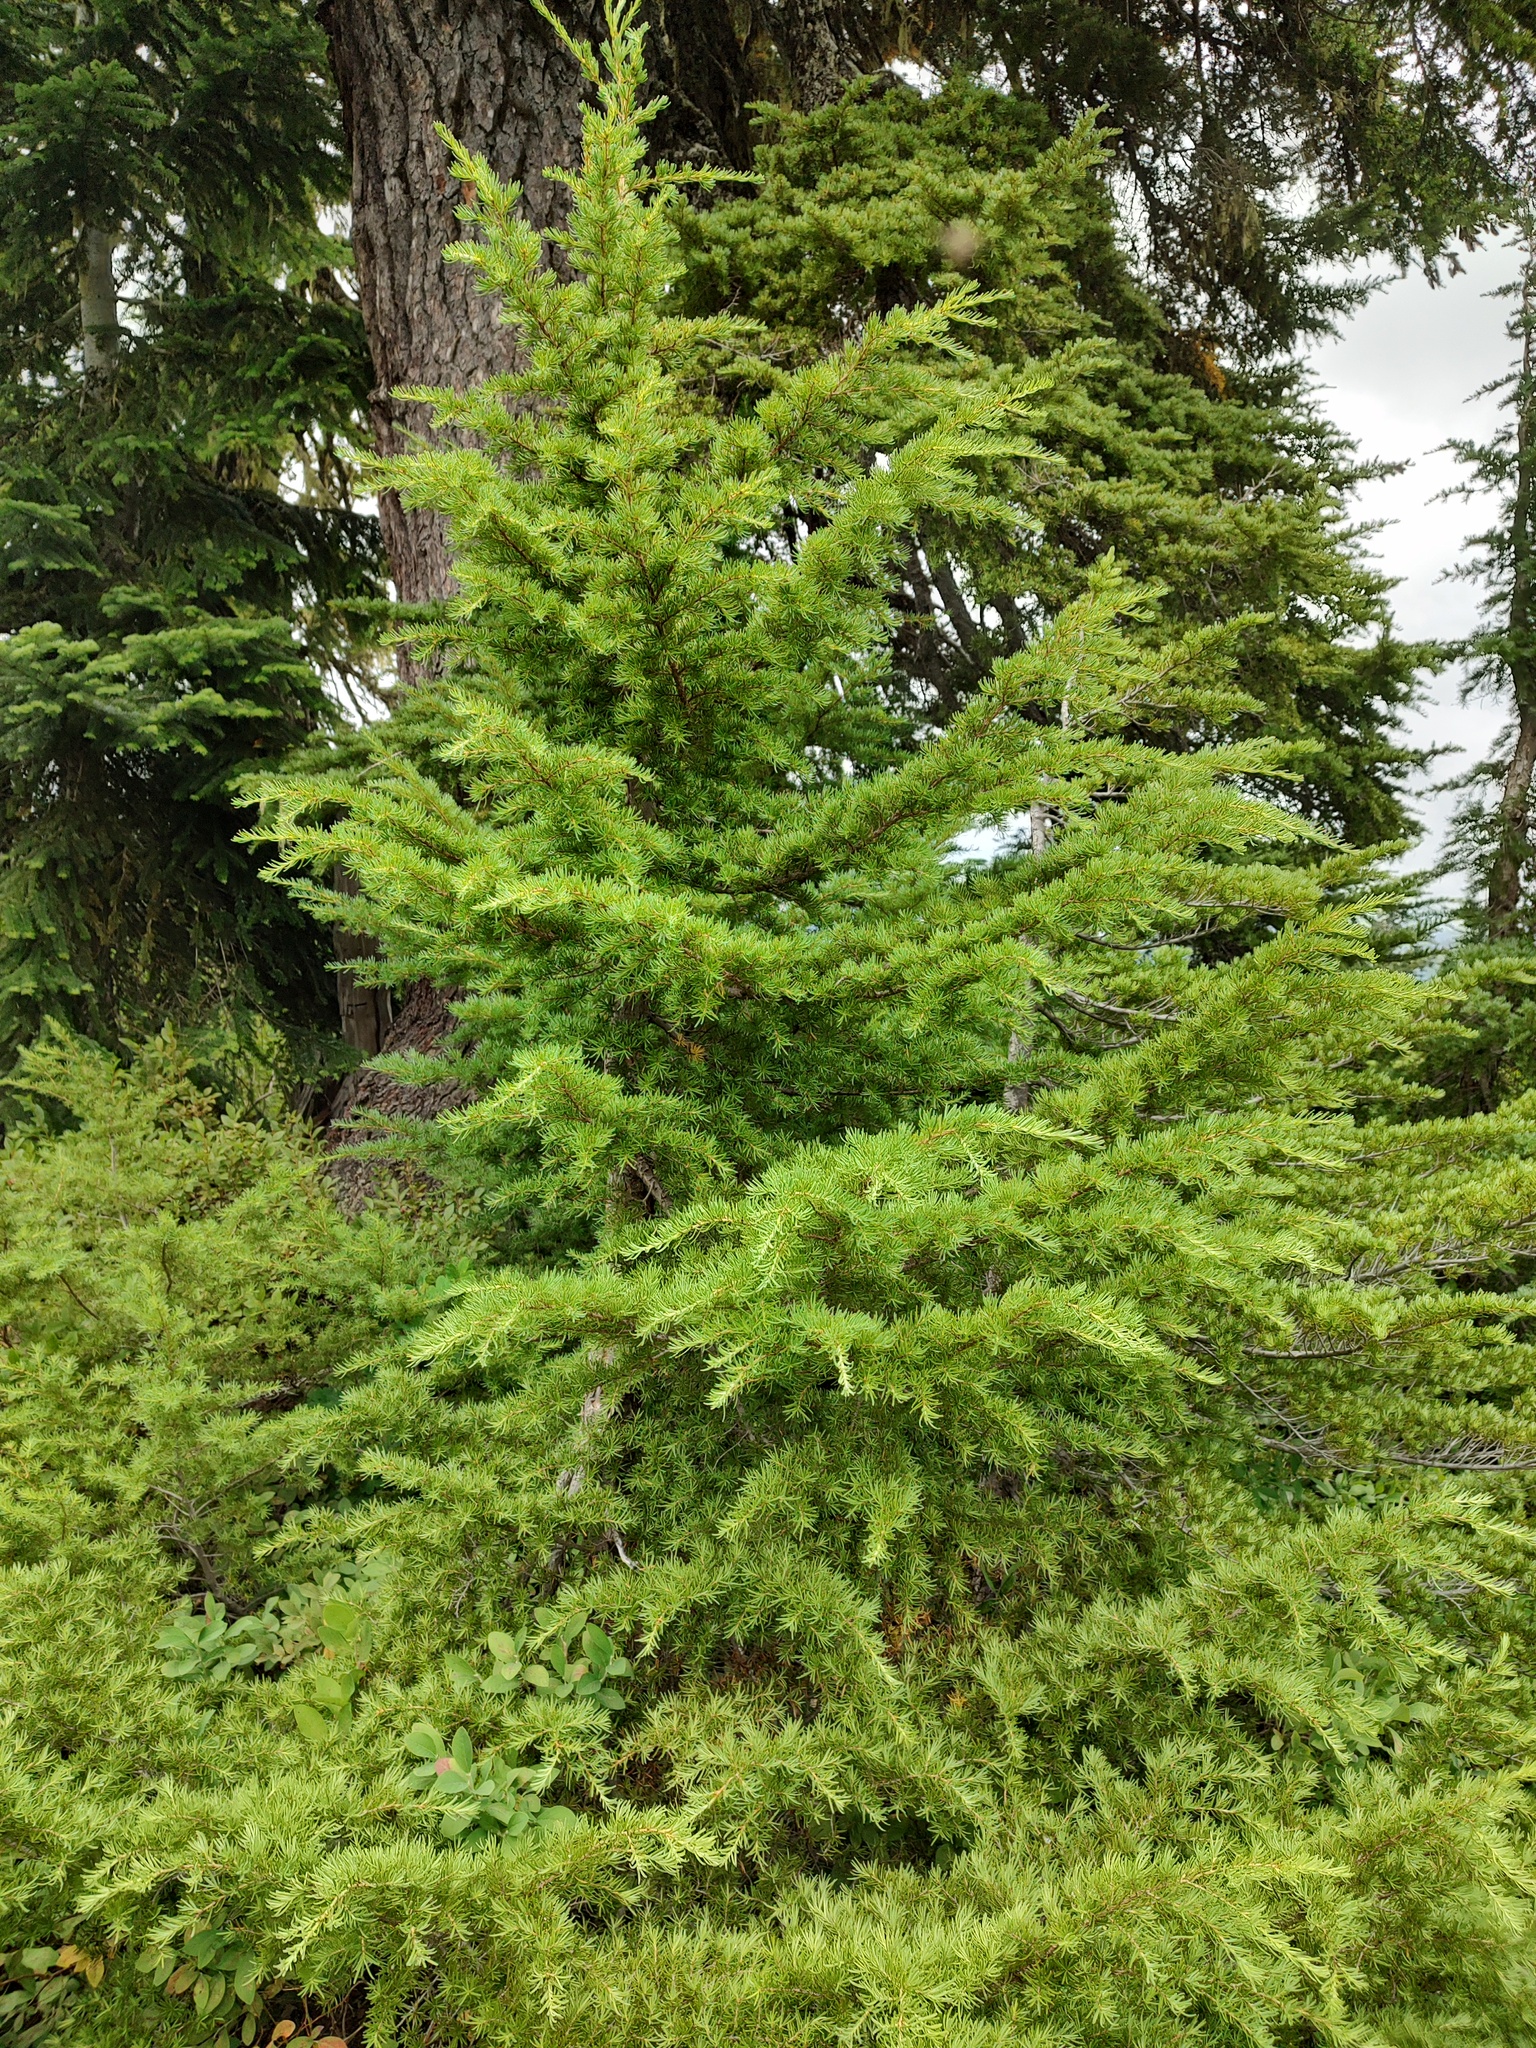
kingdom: Plantae
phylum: Tracheophyta
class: Pinopsida
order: Pinales
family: Pinaceae
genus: Tsuga
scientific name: Tsuga mertensiana
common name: Mountain hemlock
